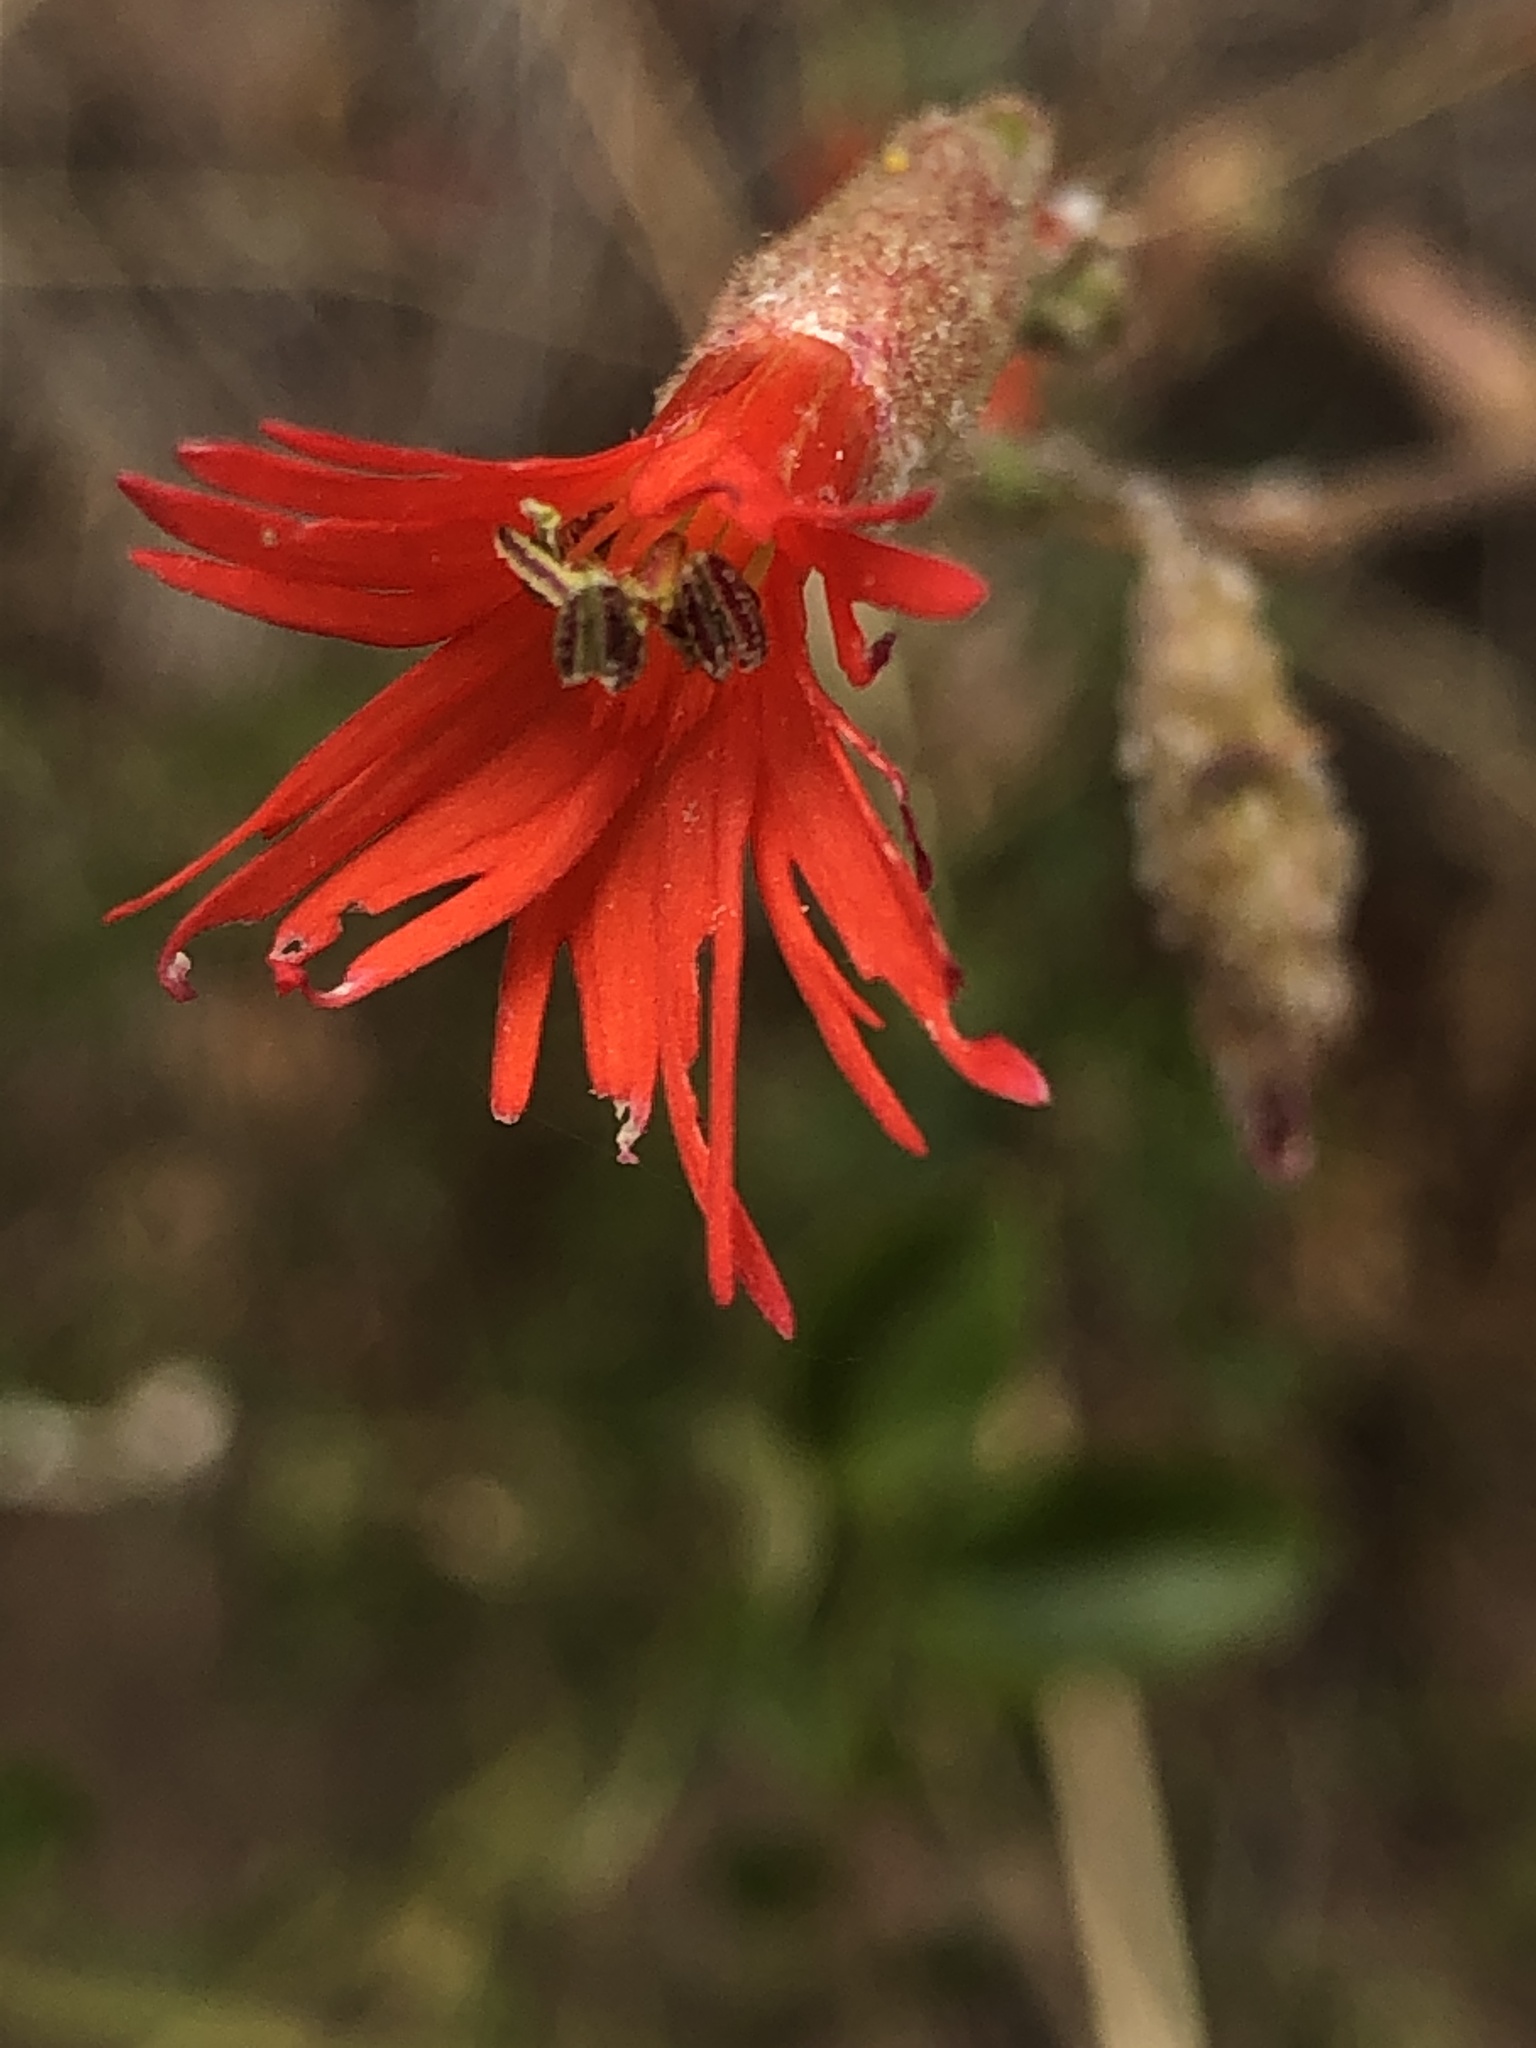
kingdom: Plantae
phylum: Tracheophyta
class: Magnoliopsida
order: Caryophyllales
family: Caryophyllaceae
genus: Silene
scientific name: Silene laciniata
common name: Indian-pink
